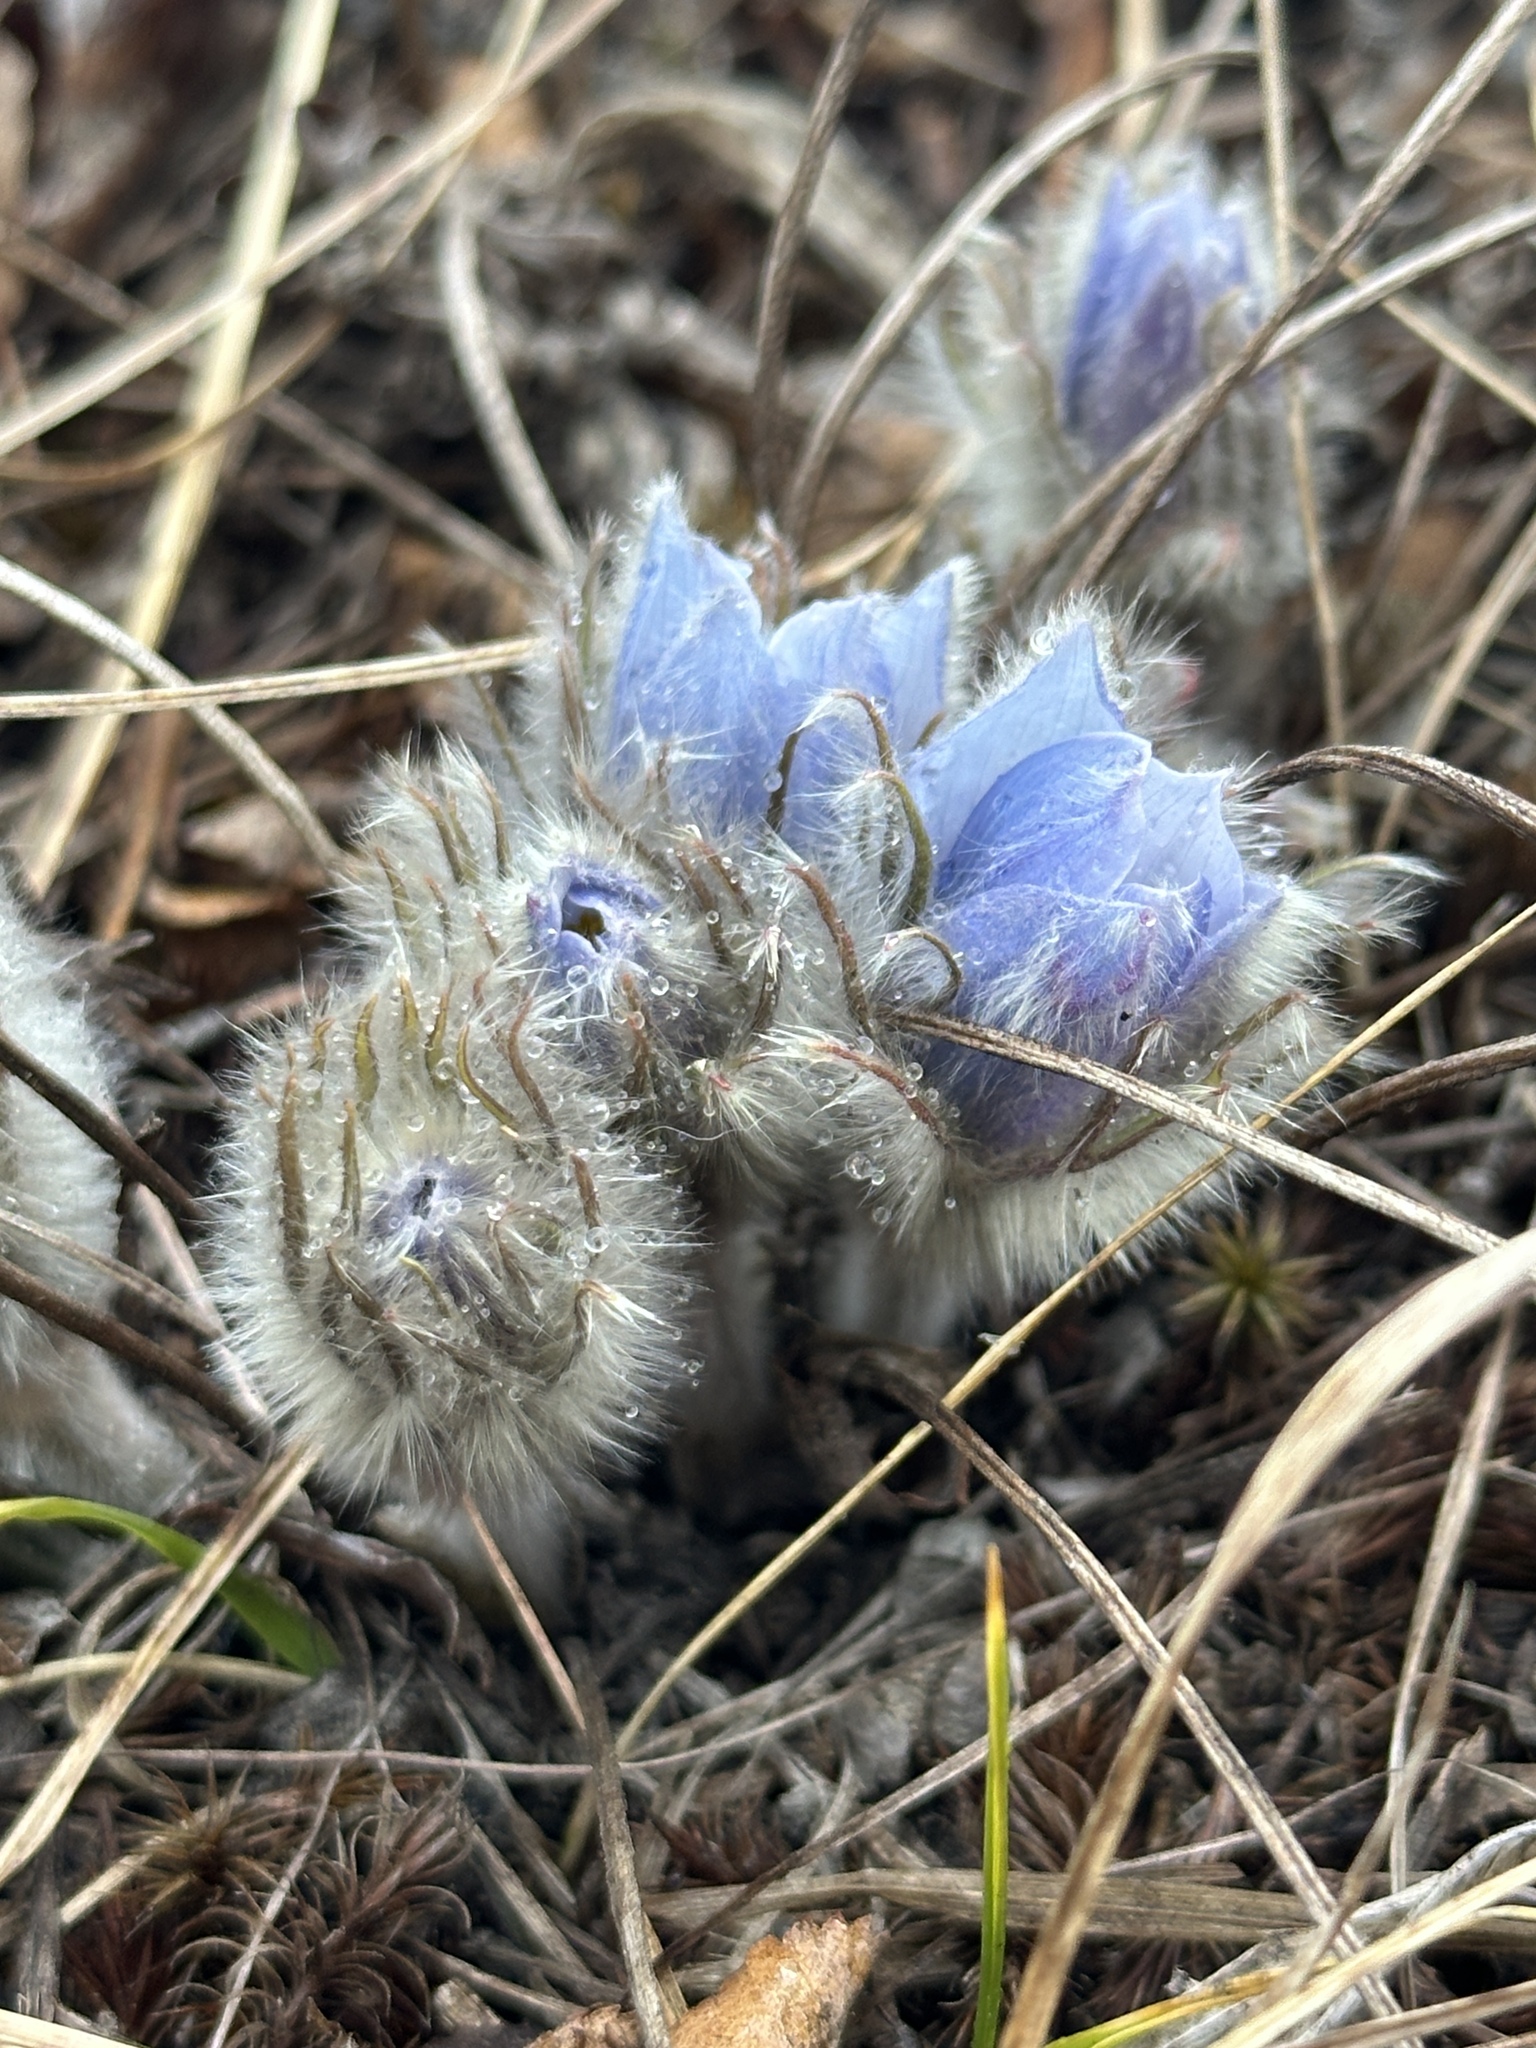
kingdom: Plantae
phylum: Tracheophyta
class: Magnoliopsida
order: Ranunculales
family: Ranunculaceae
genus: Pulsatilla
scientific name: Pulsatilla nuttalliana
